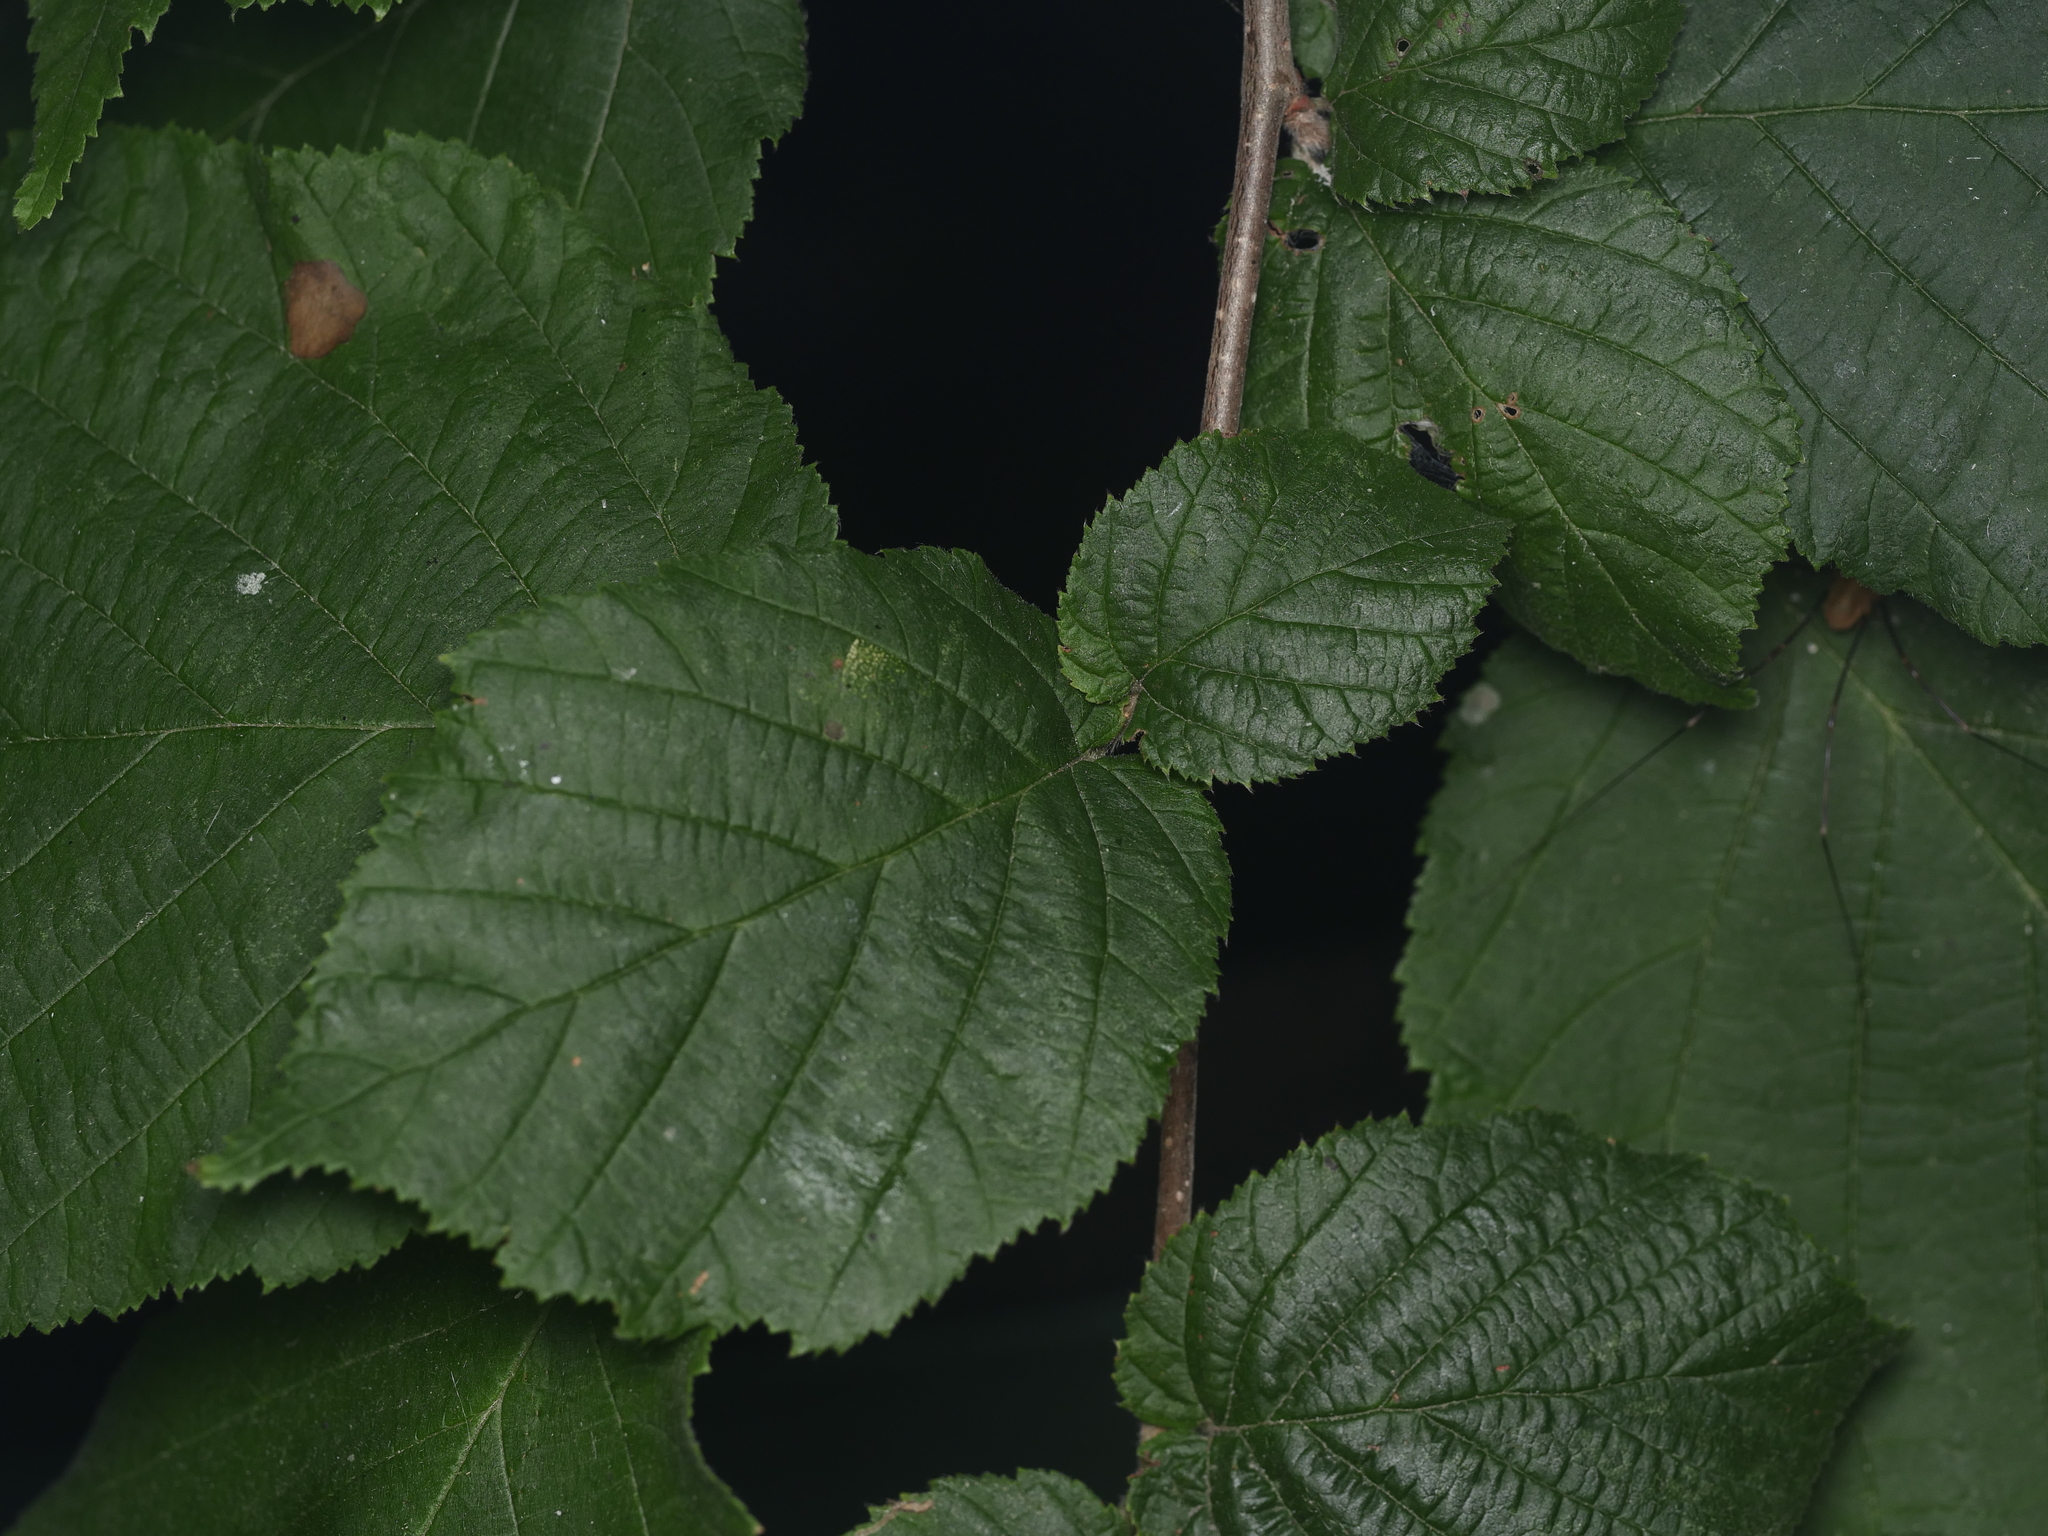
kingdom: Plantae
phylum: Tracheophyta
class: Magnoliopsida
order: Fagales
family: Betulaceae
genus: Corylus
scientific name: Corylus avellana
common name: European hazel
